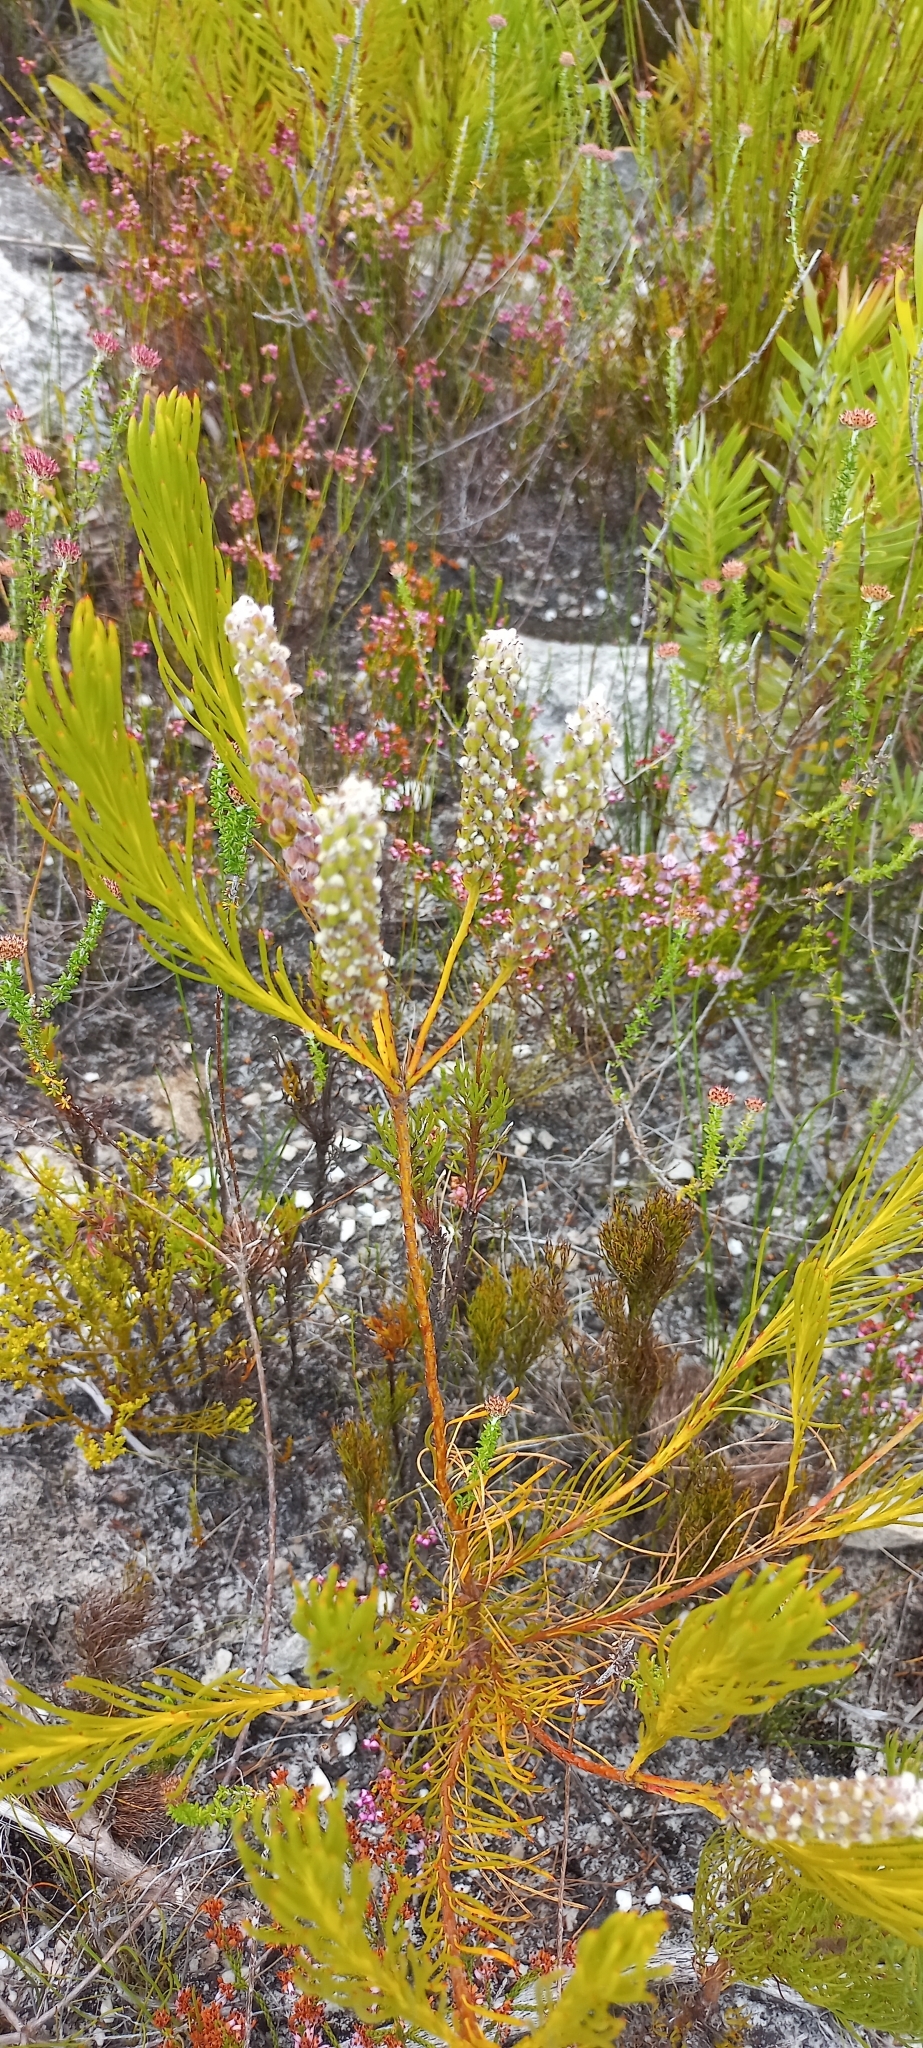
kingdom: Plantae
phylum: Tracheophyta
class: Magnoliopsida
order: Proteales
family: Proteaceae
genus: Spatalla
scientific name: Spatalla curvifolia
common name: White-stalked spoon
